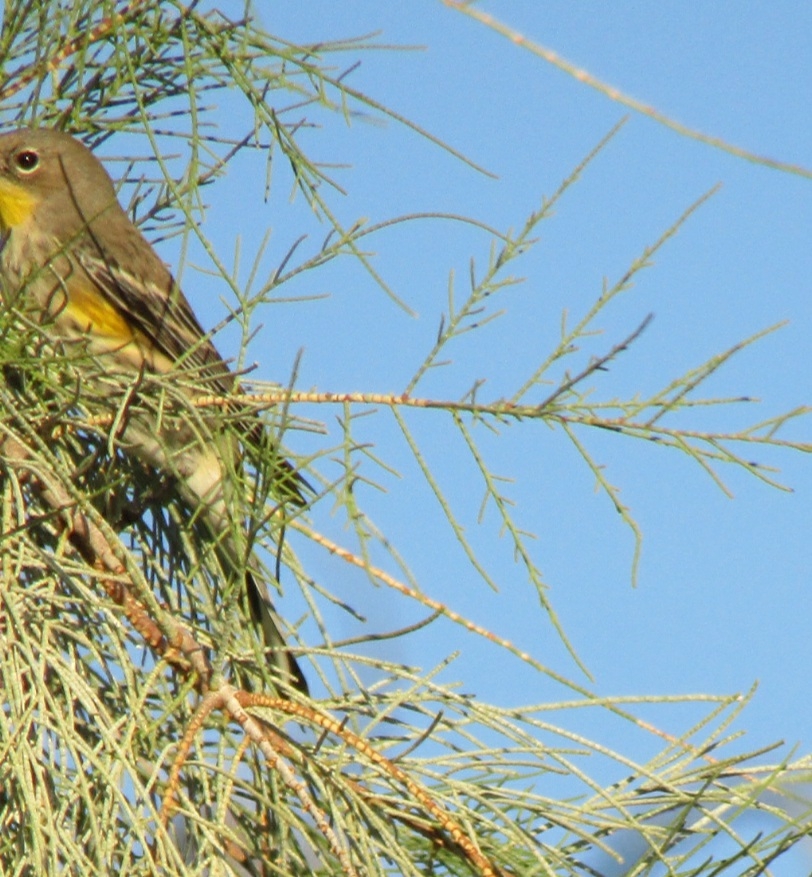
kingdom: Animalia
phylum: Chordata
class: Aves
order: Passeriformes
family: Parulidae
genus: Setophaga
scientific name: Setophaga coronata
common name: Myrtle warbler
